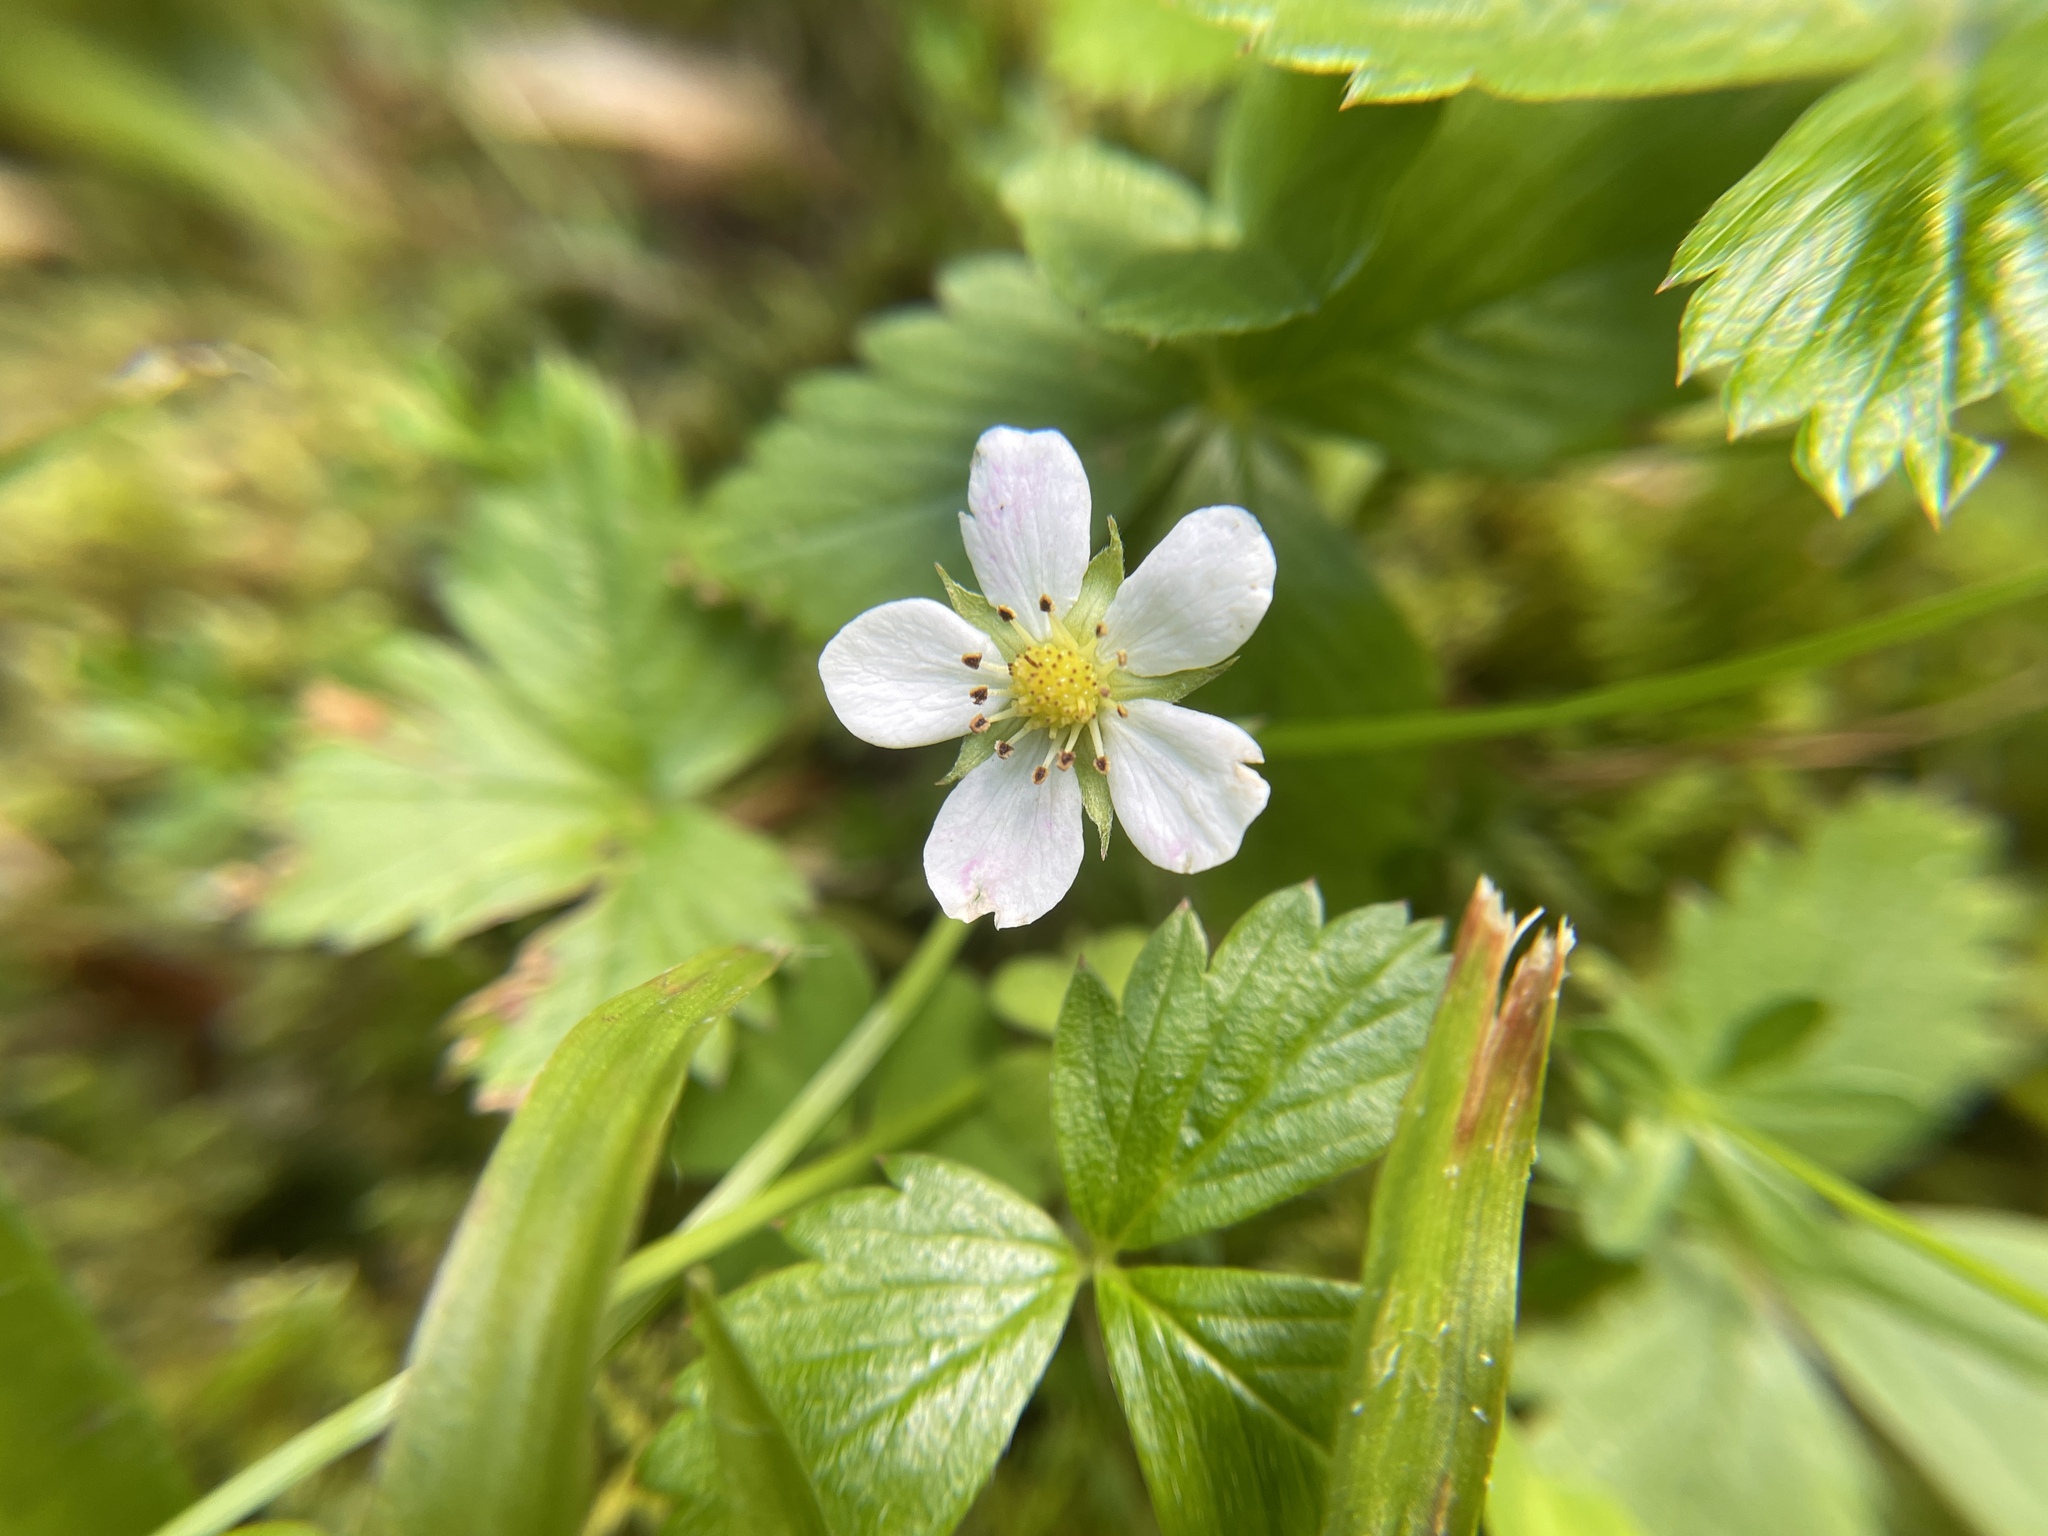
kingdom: Plantae
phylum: Tracheophyta
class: Magnoliopsida
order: Rosales
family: Rosaceae
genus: Fragaria
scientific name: Fragaria vesca
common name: Wild strawberry
